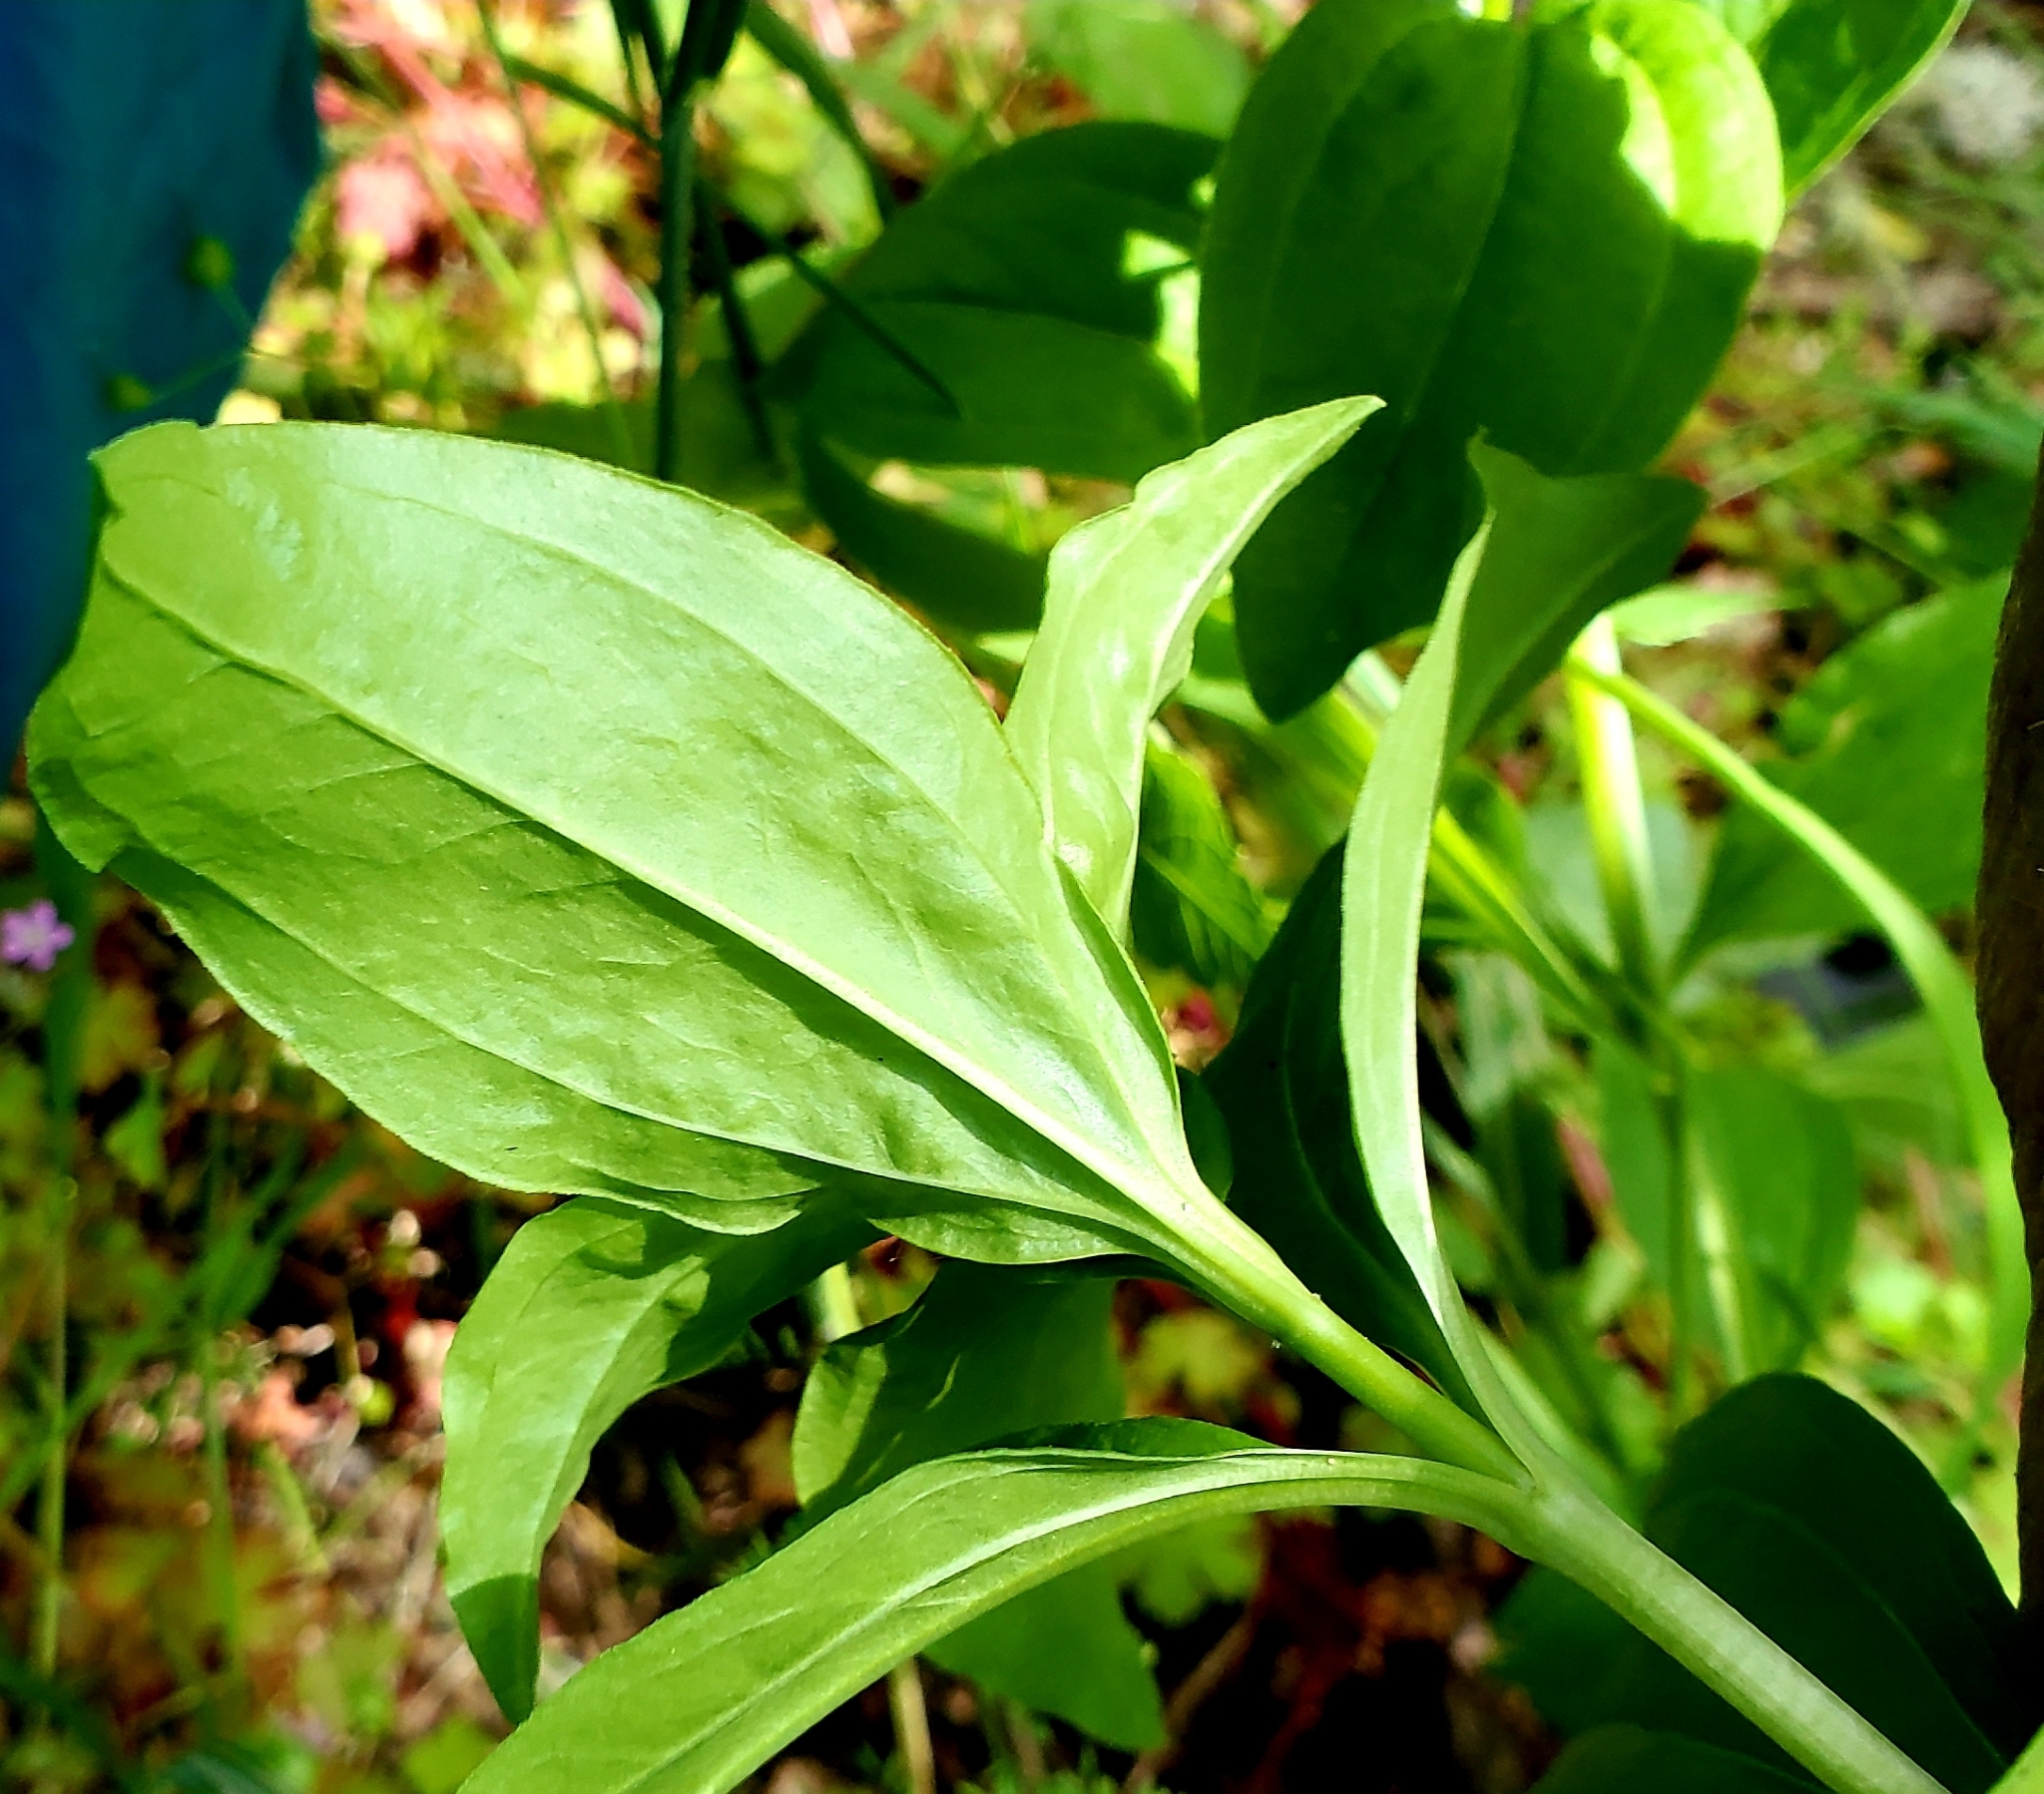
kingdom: Plantae
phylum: Tracheophyta
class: Magnoliopsida
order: Caryophyllales
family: Caryophyllaceae
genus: Saponaria
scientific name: Saponaria officinalis
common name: Soapwort
